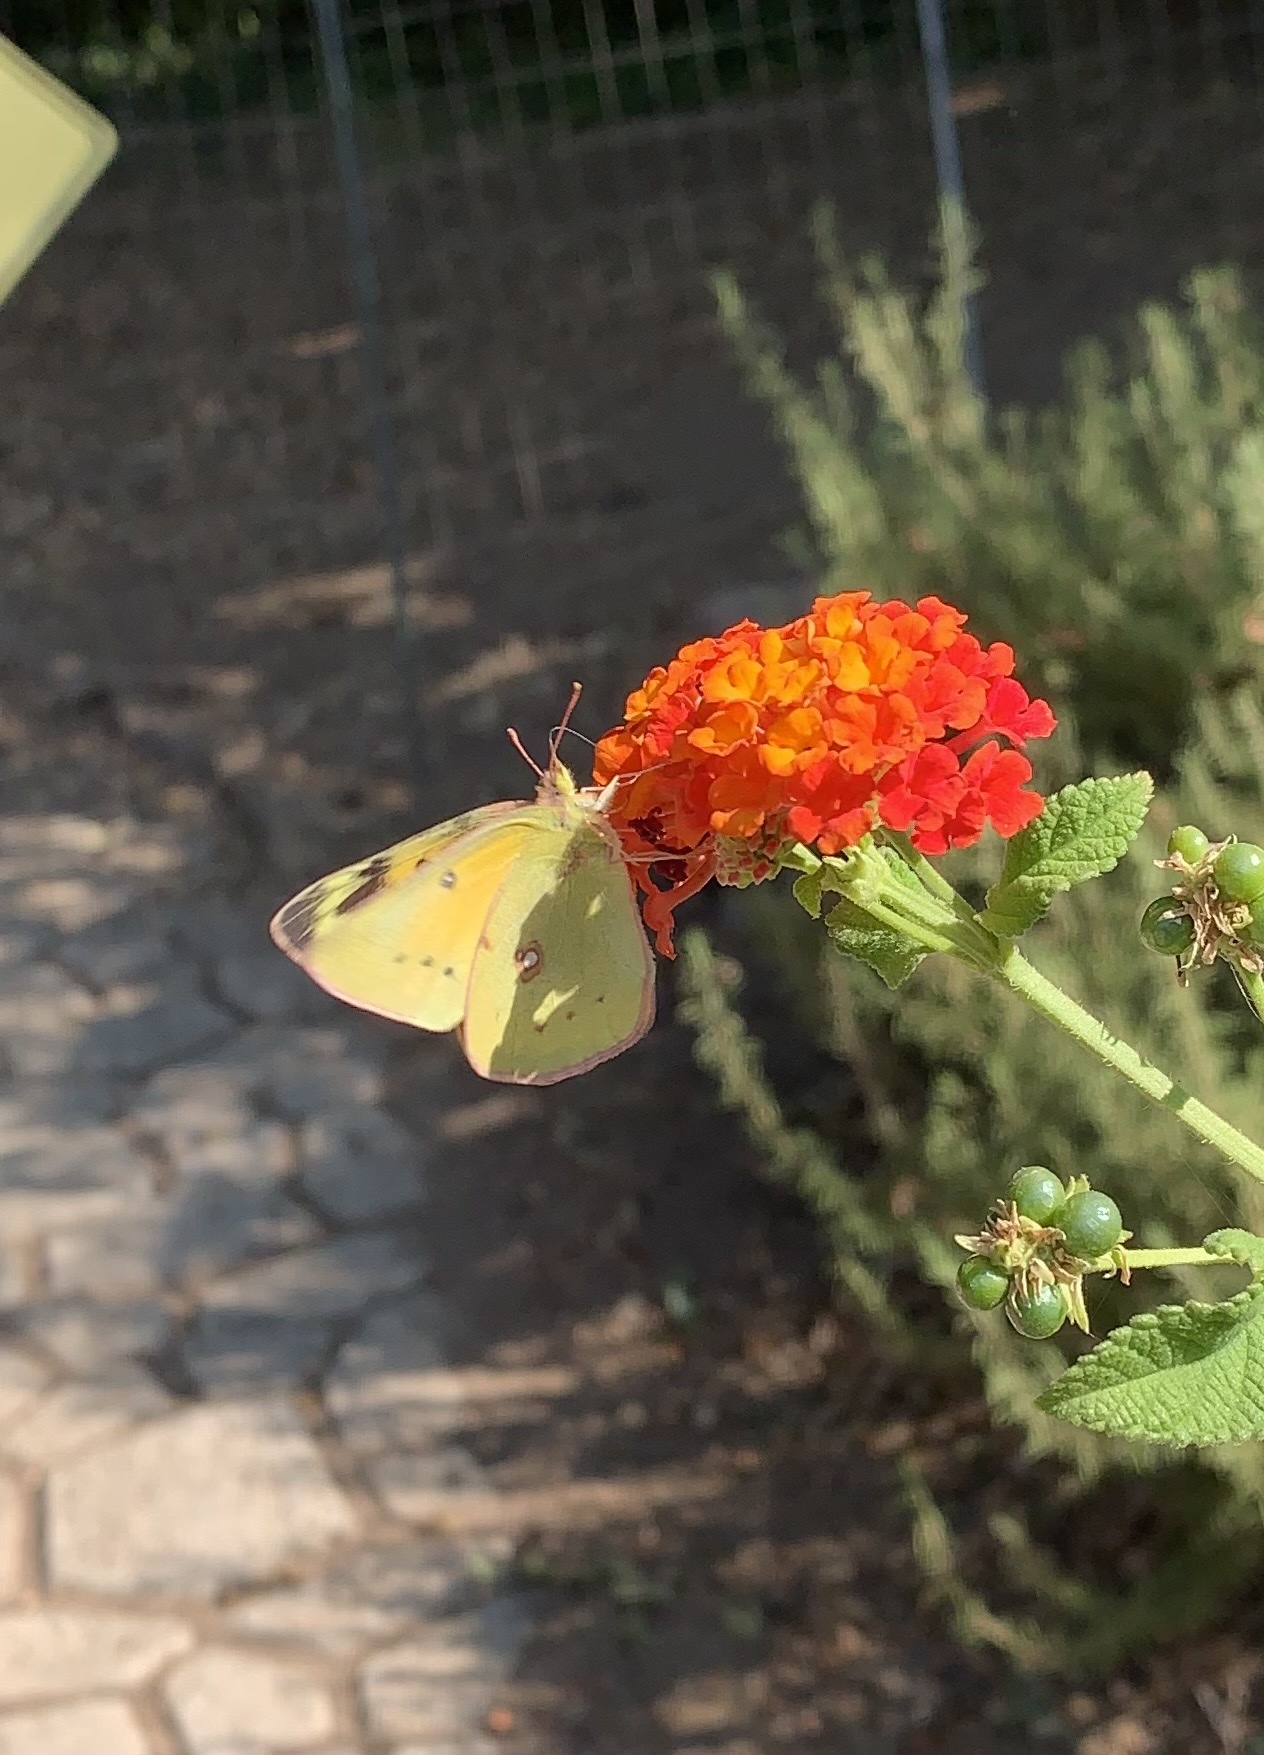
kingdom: Animalia
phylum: Arthropoda
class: Insecta
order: Lepidoptera
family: Pieridae
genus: Colias
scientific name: Colias eurytheme
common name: Alfalfa butterfly
